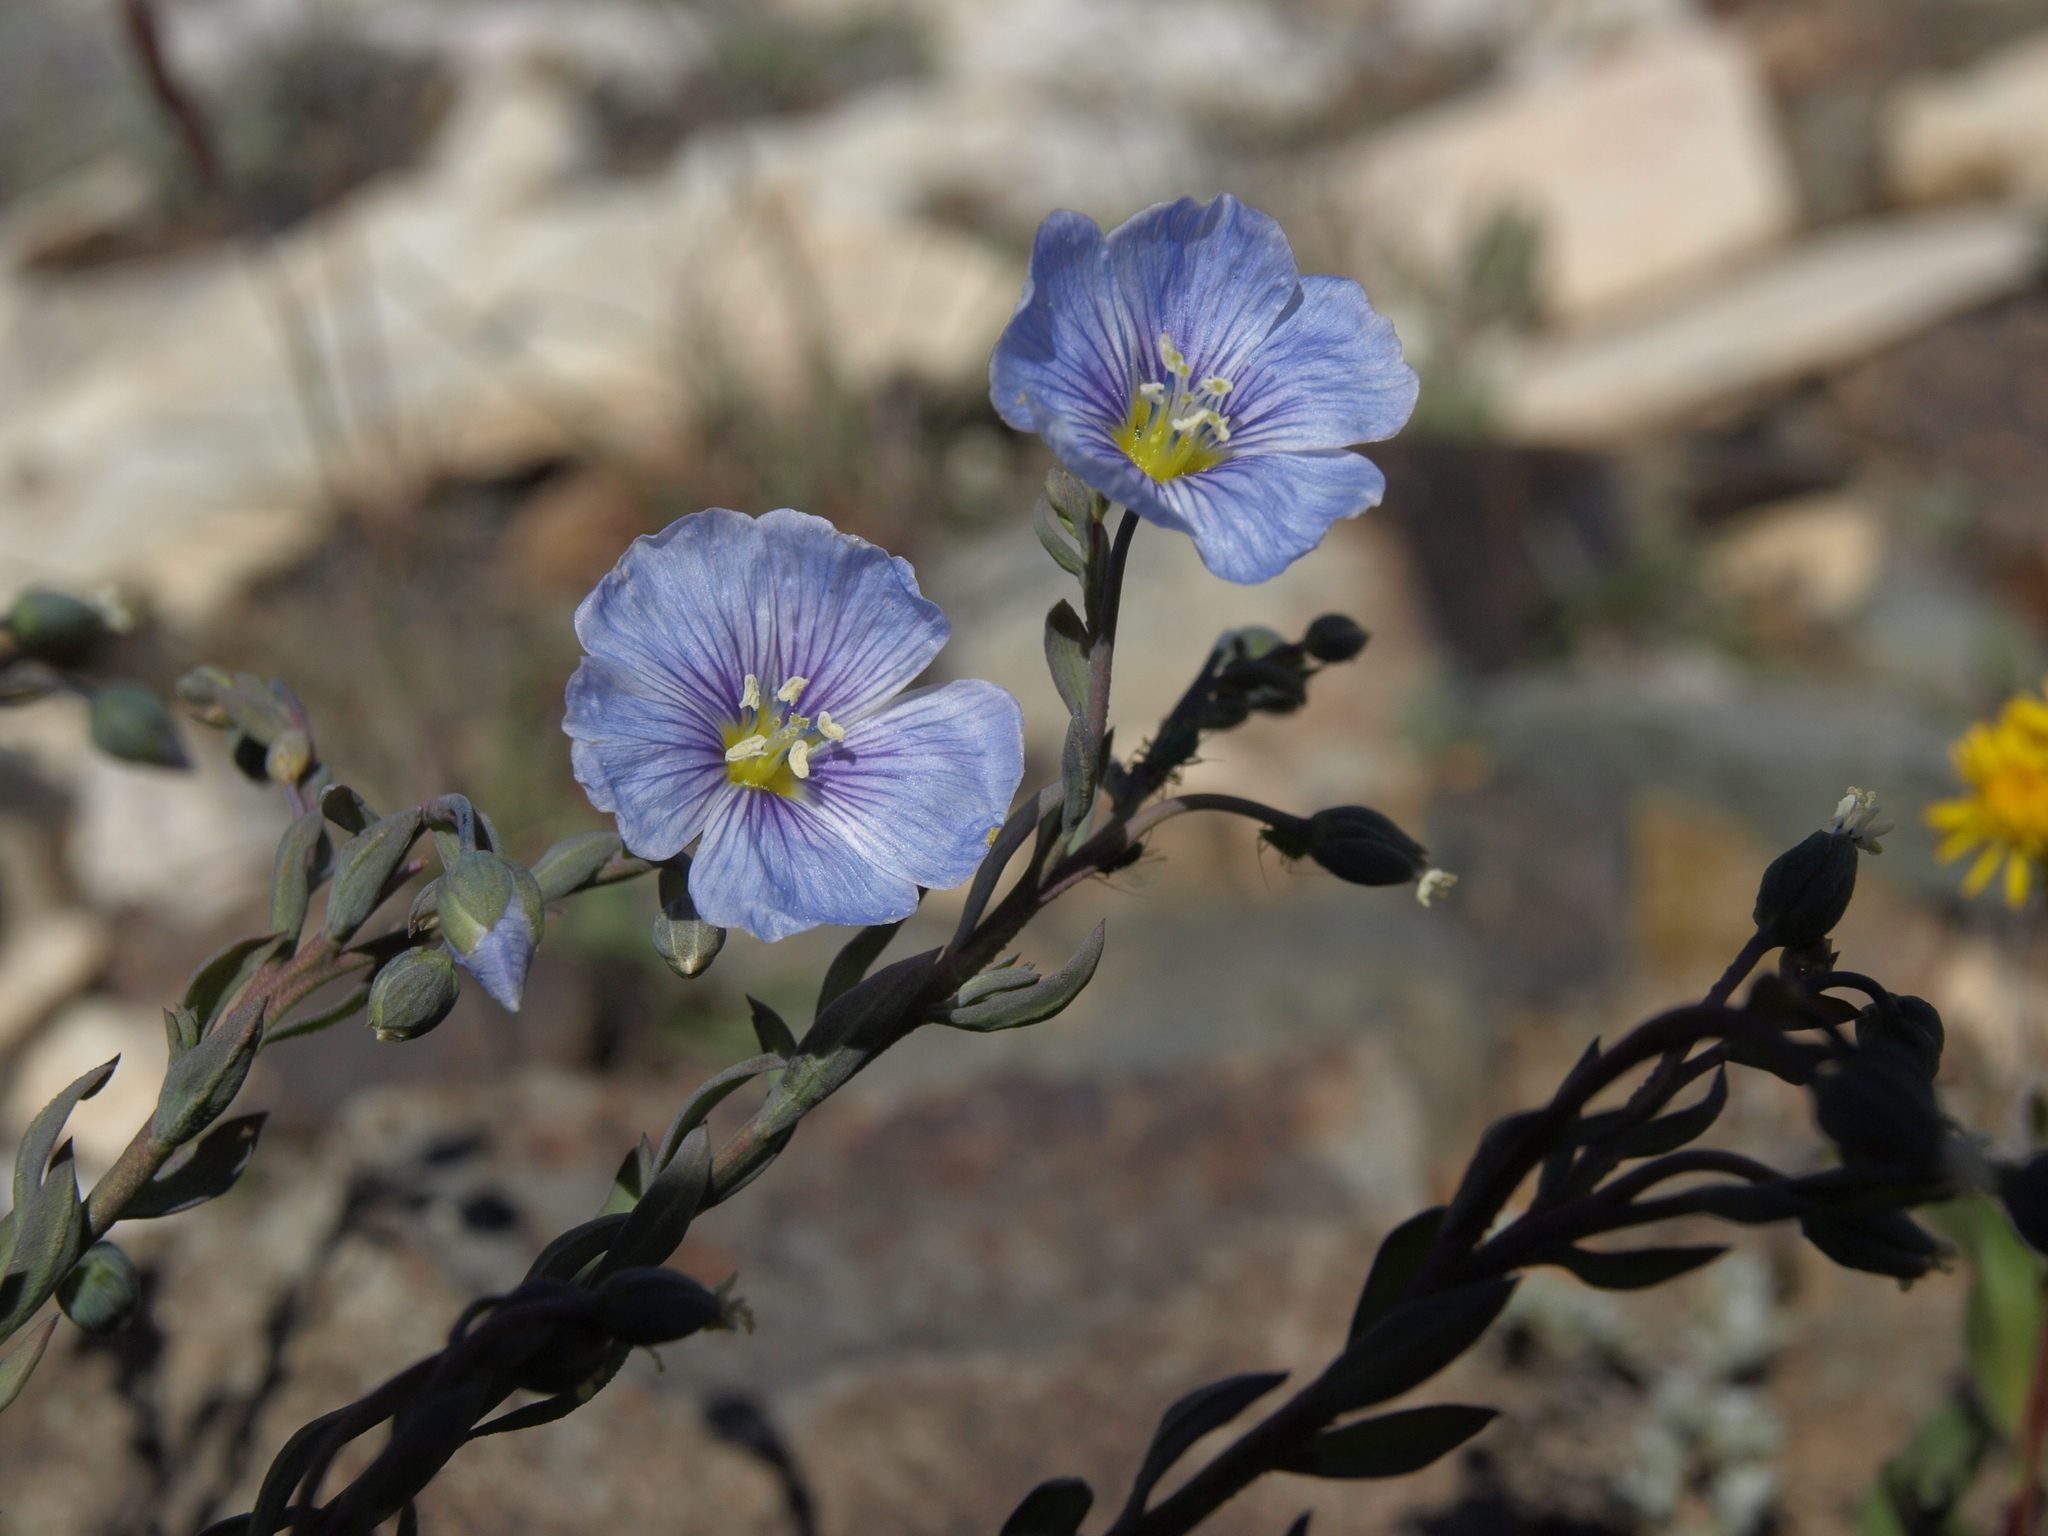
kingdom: Plantae
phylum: Tracheophyta
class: Magnoliopsida
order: Malpighiales
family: Linaceae
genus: Linum
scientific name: Linum lewisii
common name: Prairie flax
